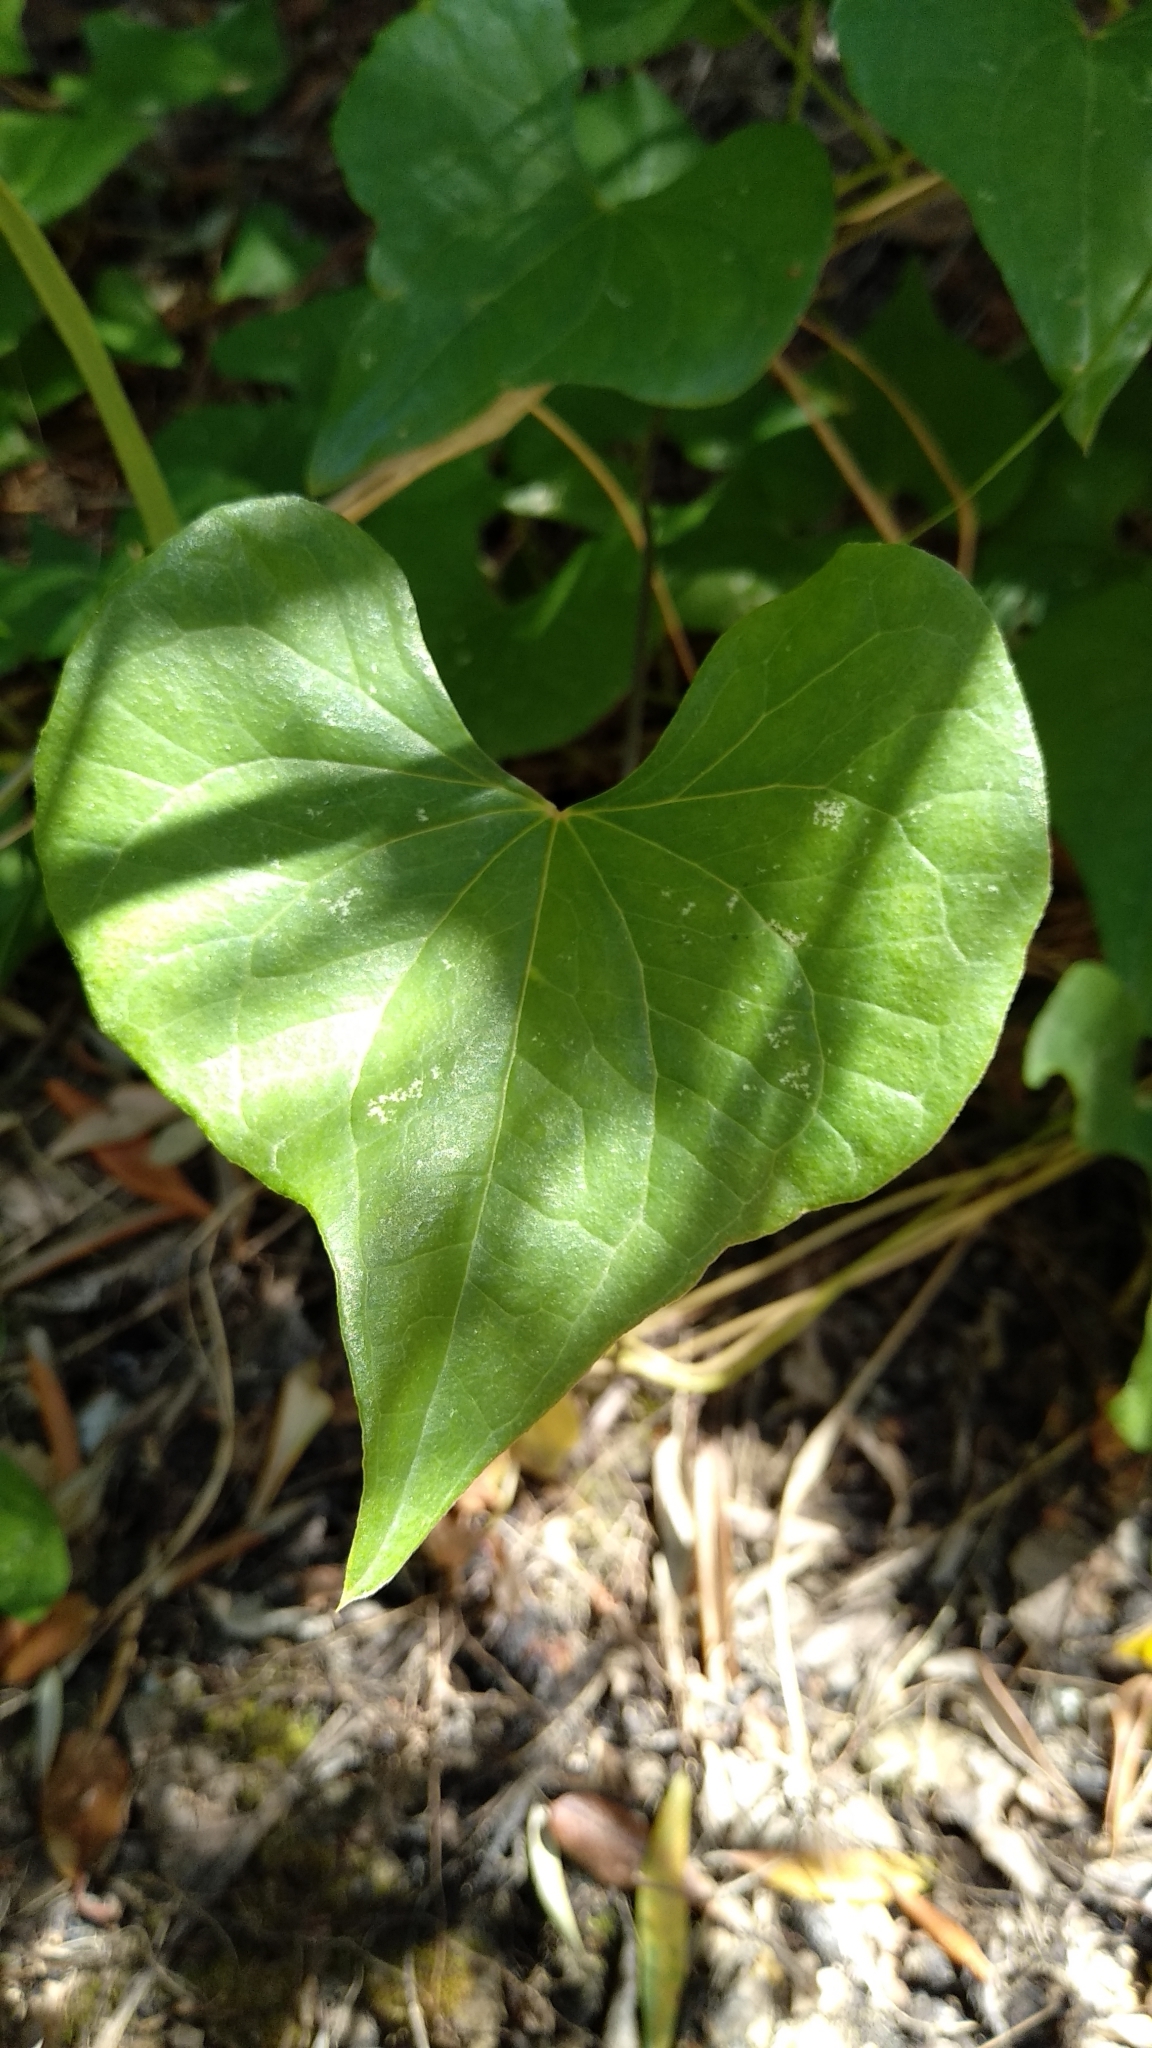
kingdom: Plantae
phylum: Tracheophyta
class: Liliopsida
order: Dioscoreales
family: Dioscoreaceae
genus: Dioscorea
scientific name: Dioscorea communis
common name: Black-bindweed
